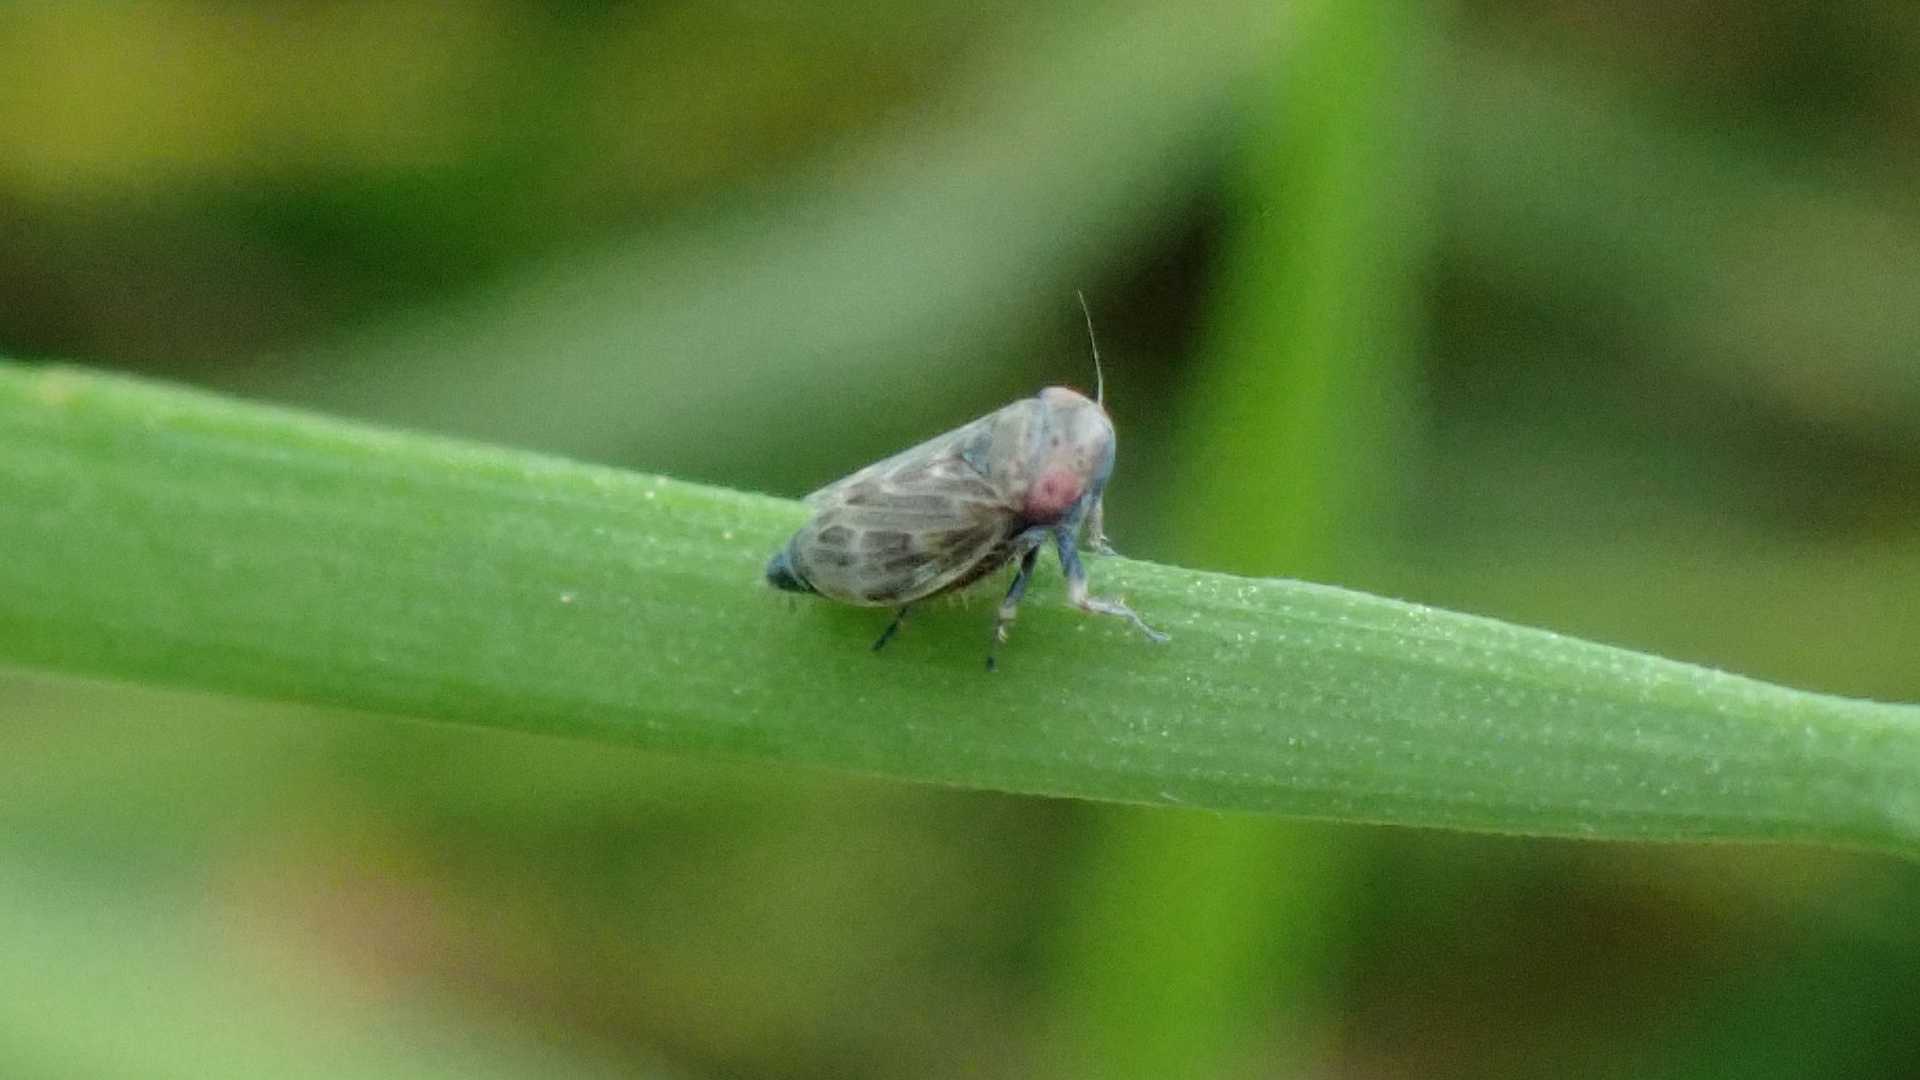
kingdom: Animalia
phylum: Arthropoda
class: Insecta
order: Hemiptera
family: Cicadellidae
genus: Deltocephalus
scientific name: Deltocephalus pulicaris
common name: Leafhopper
